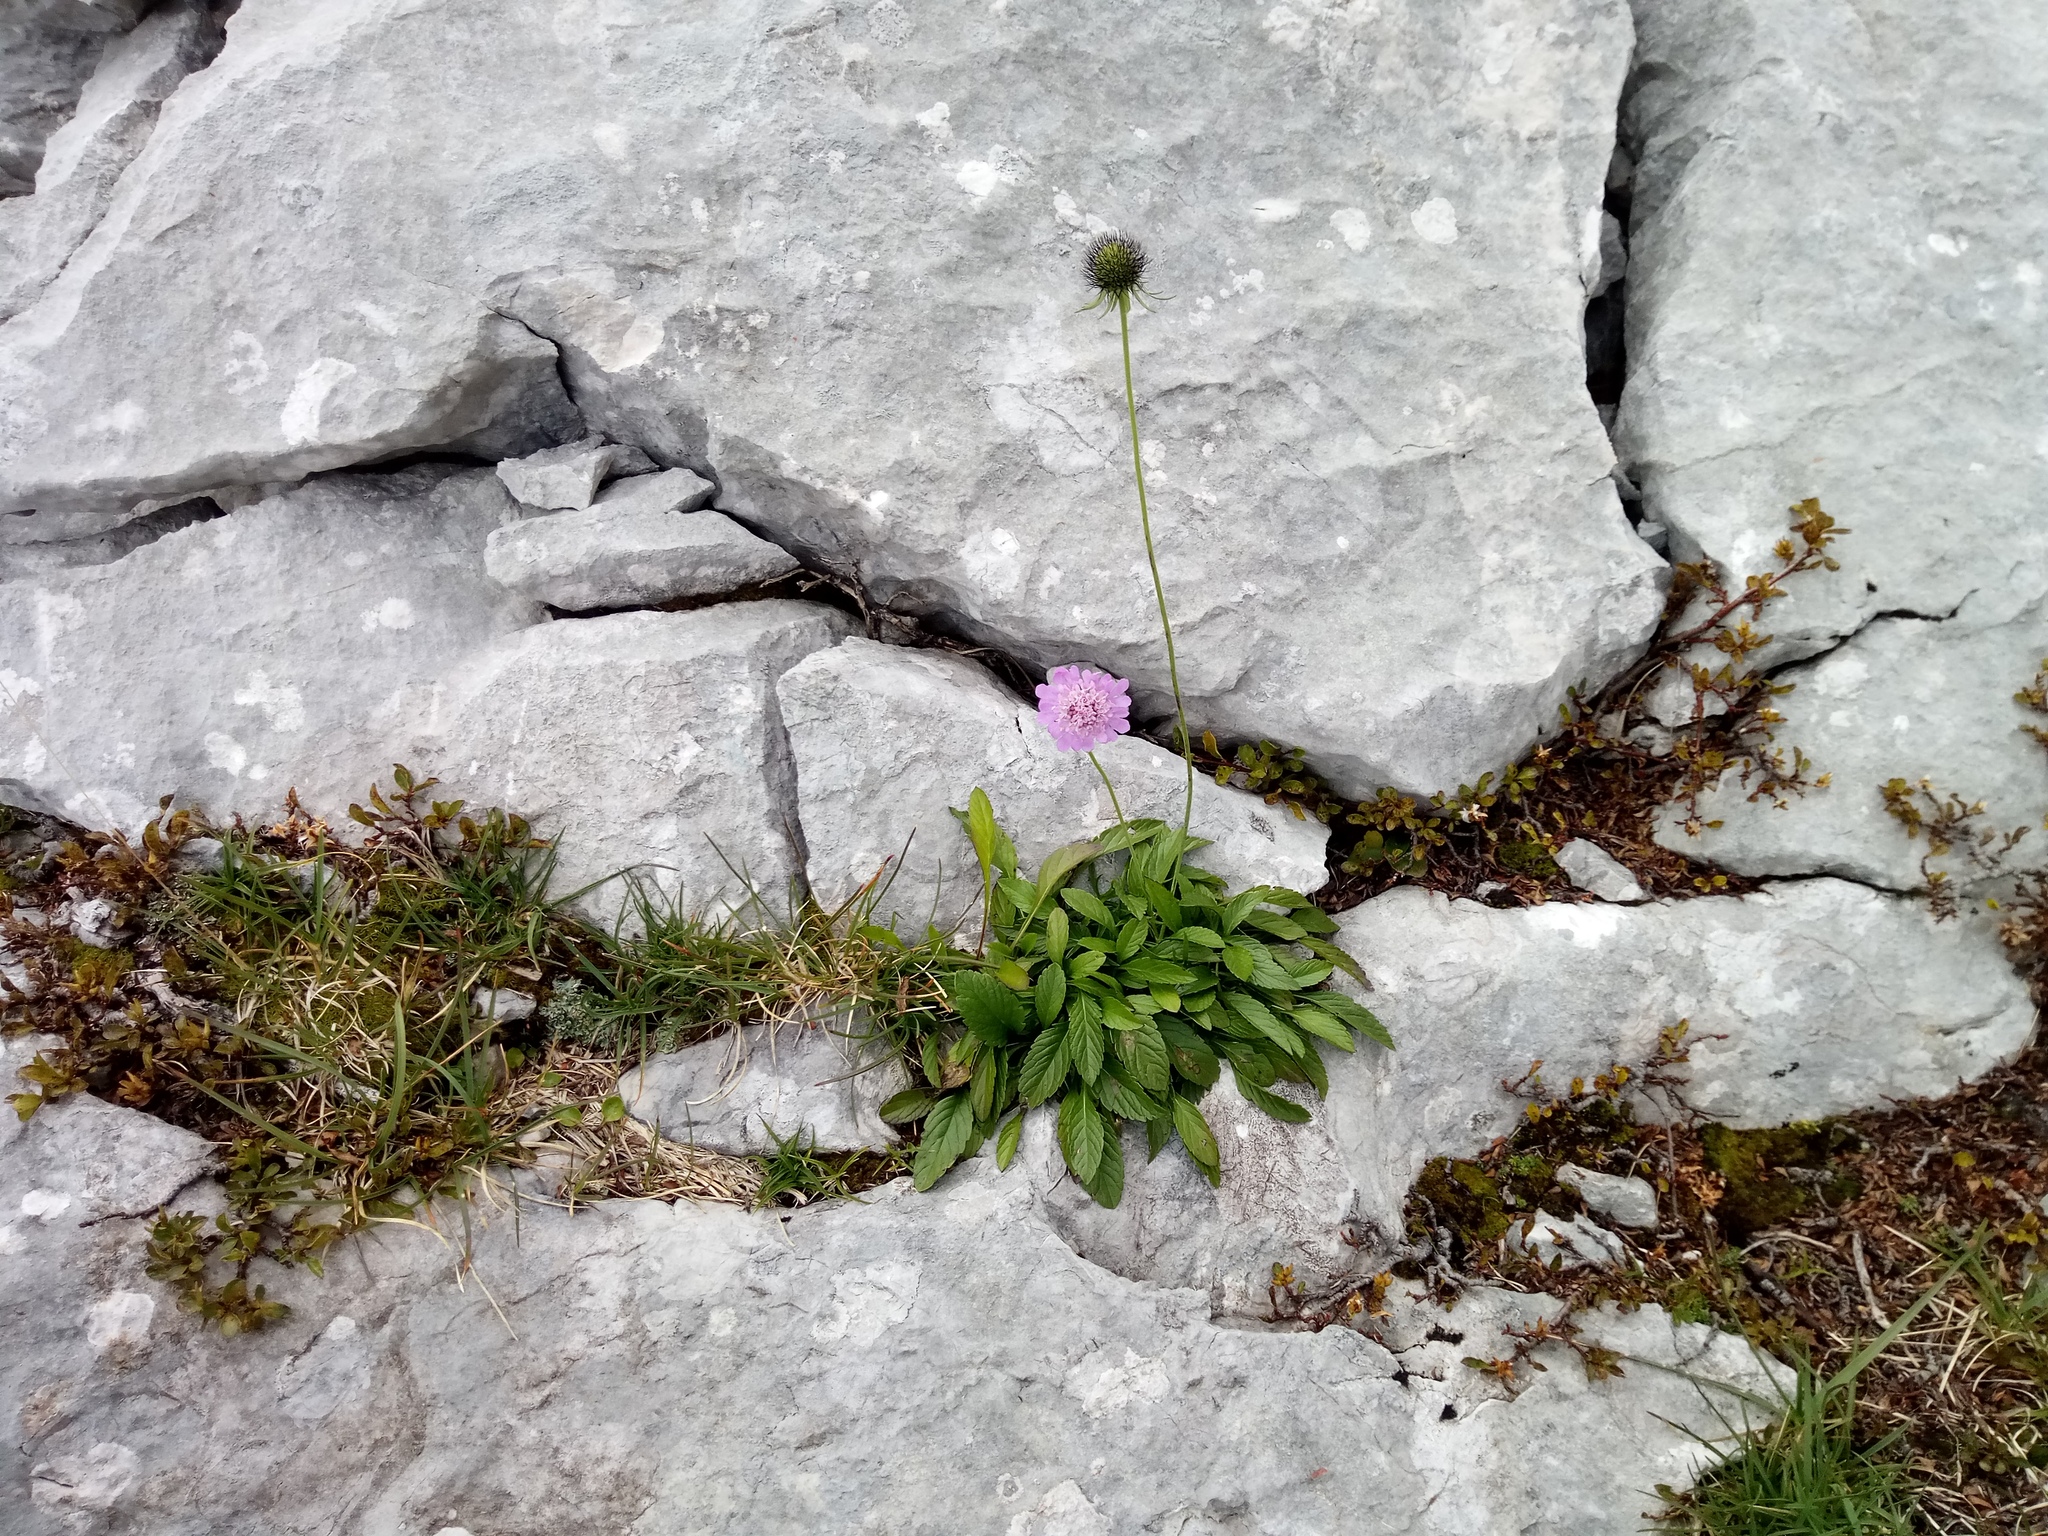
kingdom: Plantae
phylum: Tracheophyta
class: Magnoliopsida
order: Dipsacales
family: Caprifoliaceae
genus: Scabiosa
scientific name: Scabiosa lucida
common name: Shining scabious
